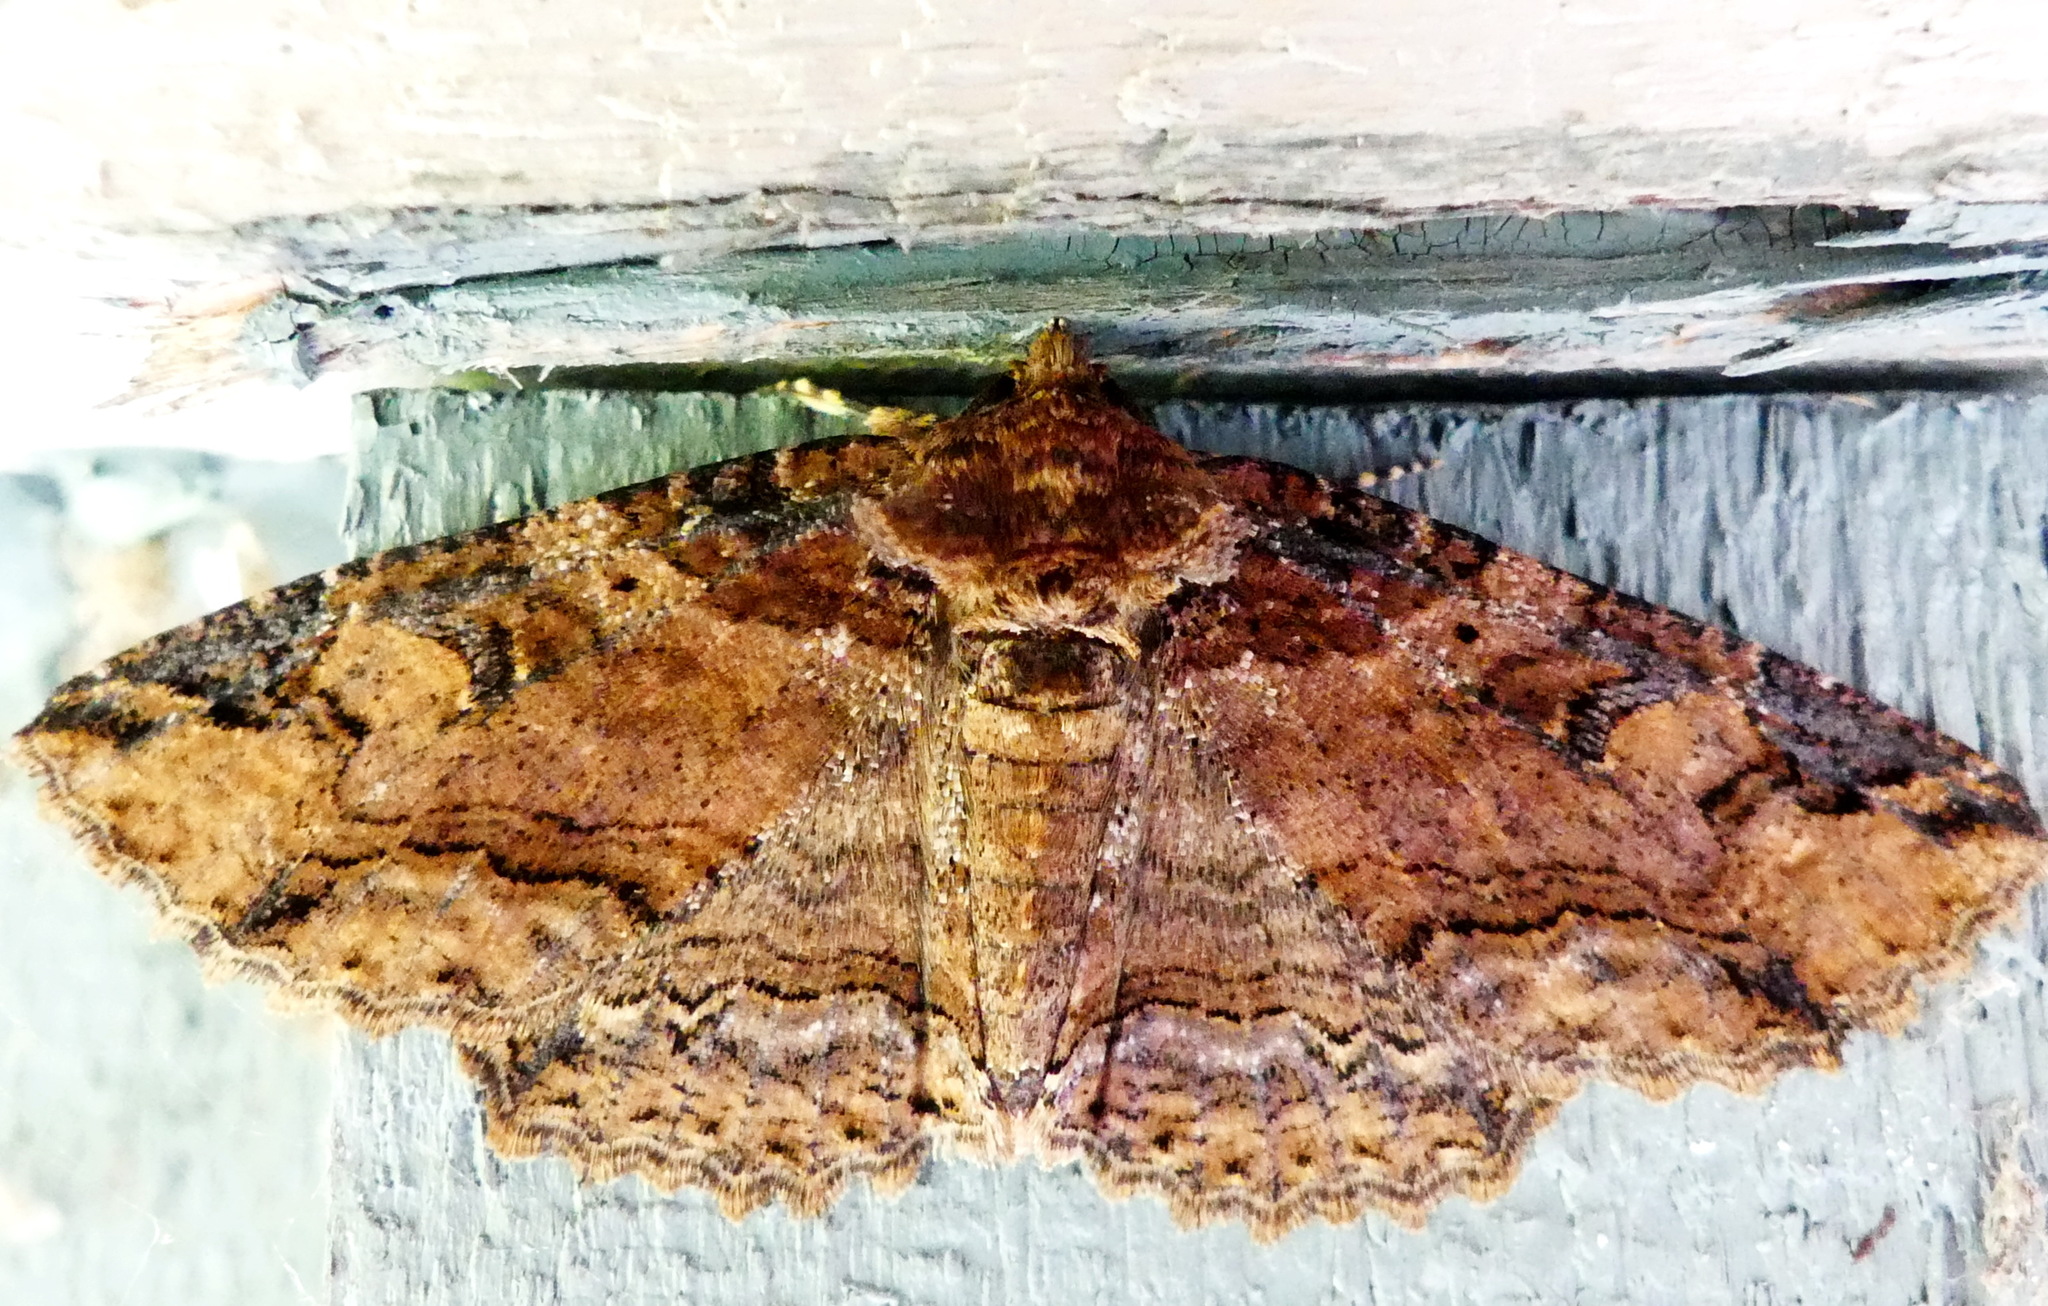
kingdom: Animalia
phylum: Arthropoda
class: Insecta
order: Lepidoptera
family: Erebidae
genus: Zale
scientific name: Zale minerea
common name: Colorful zale moth
